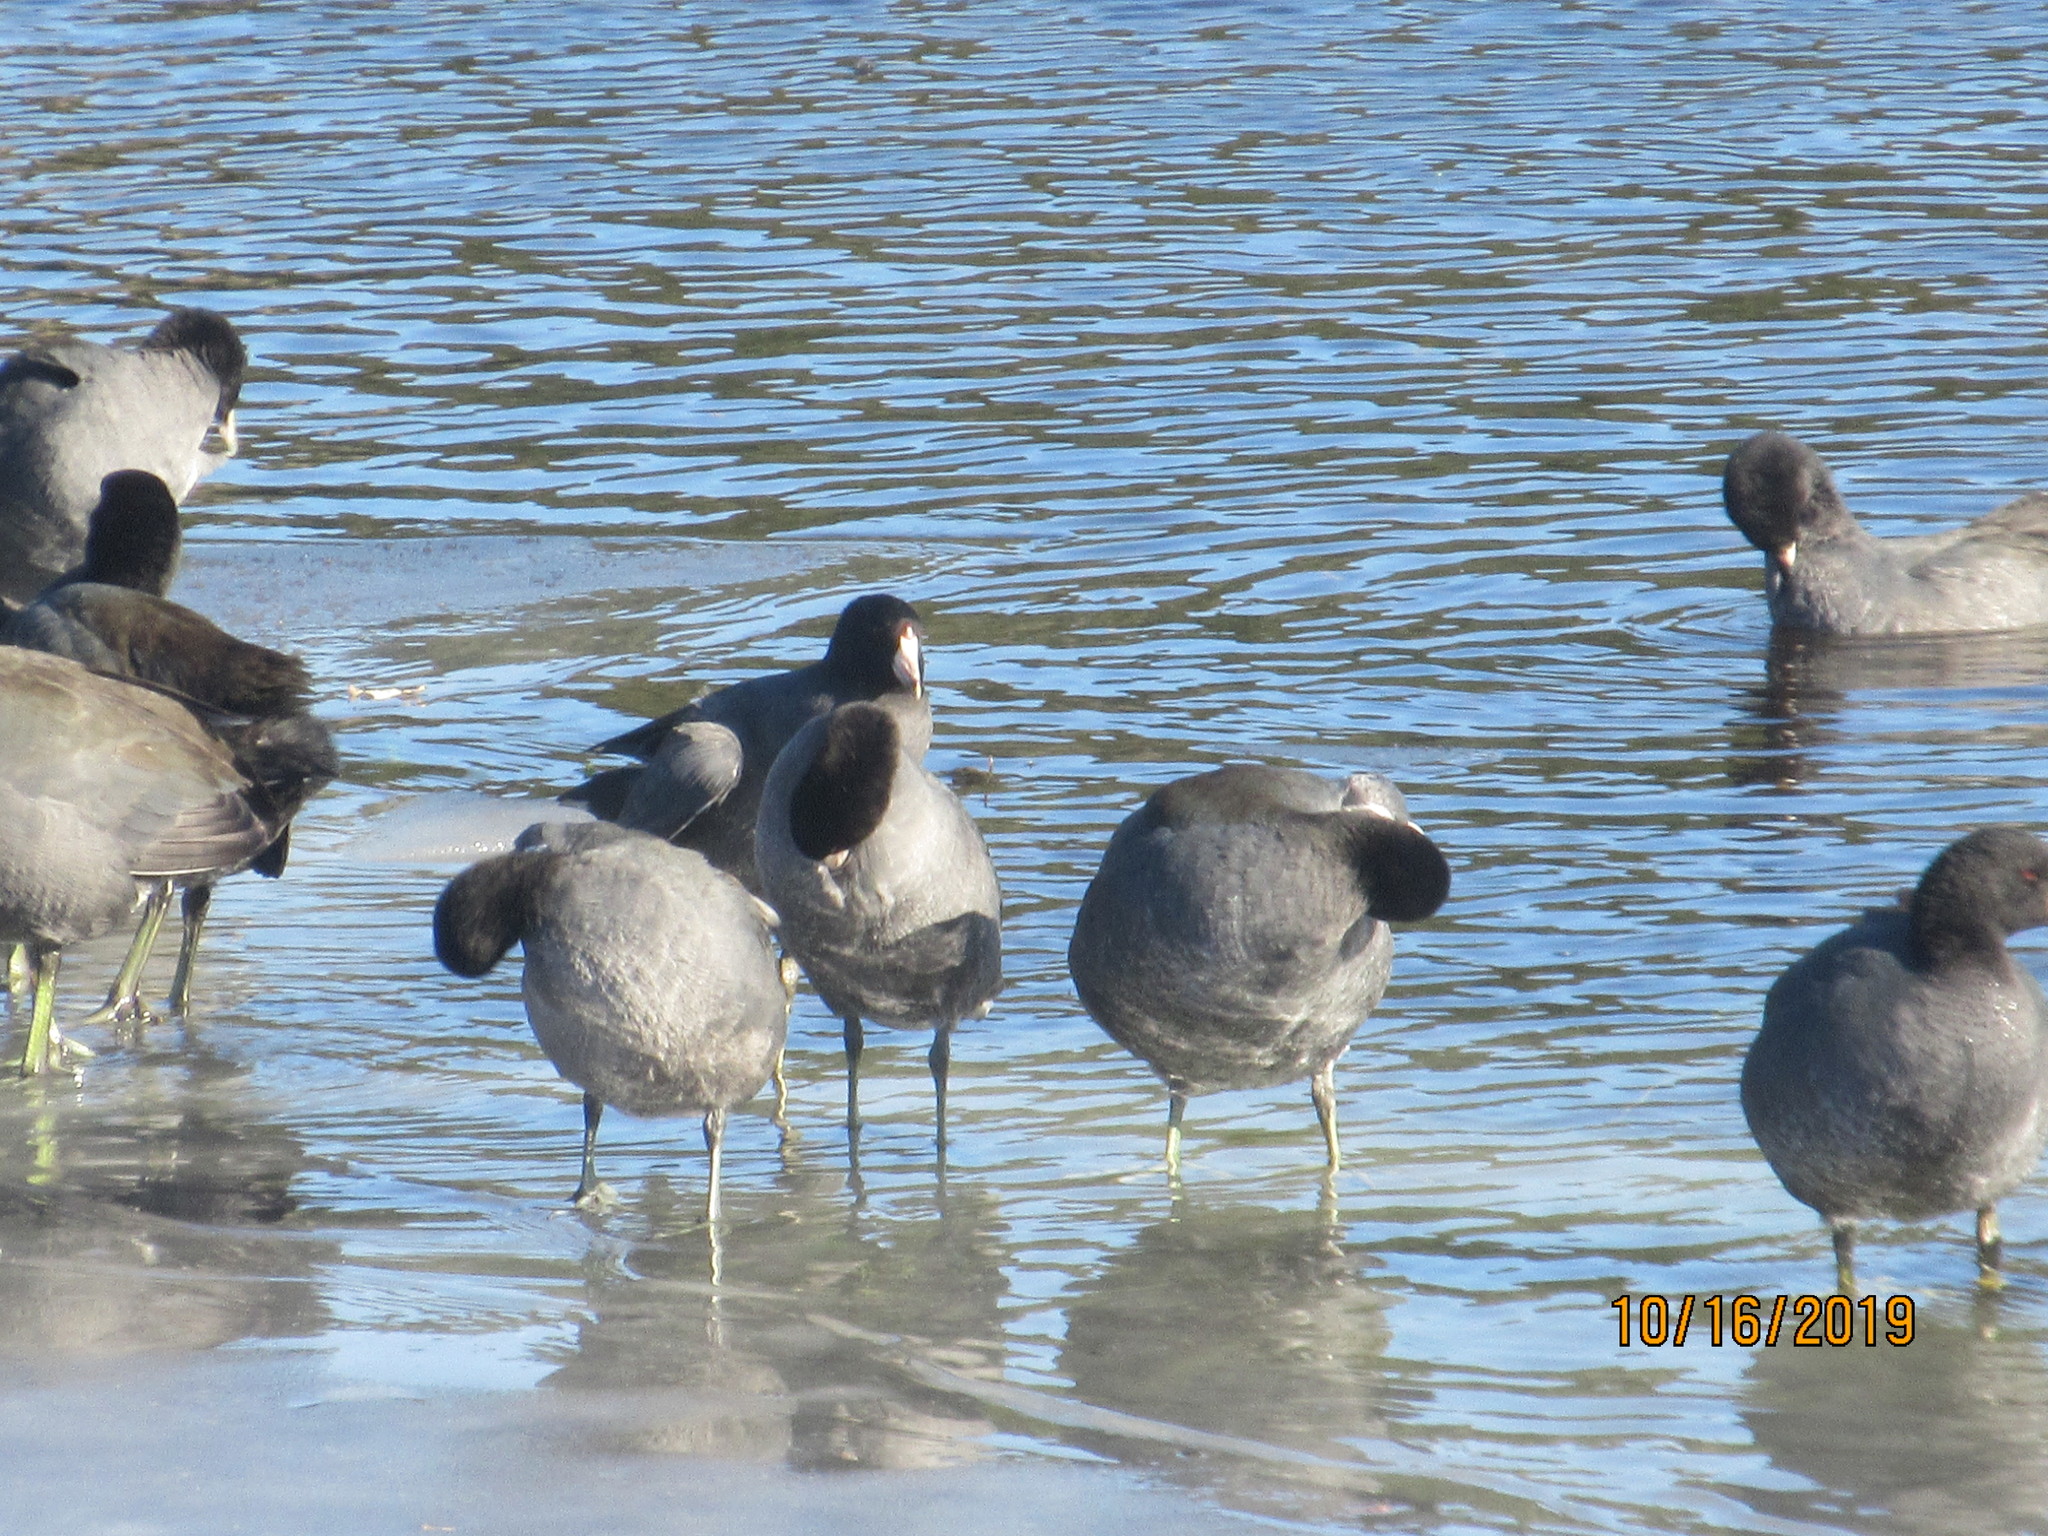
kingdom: Animalia
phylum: Chordata
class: Aves
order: Gruiformes
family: Rallidae
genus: Fulica
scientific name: Fulica americana
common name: American coot
